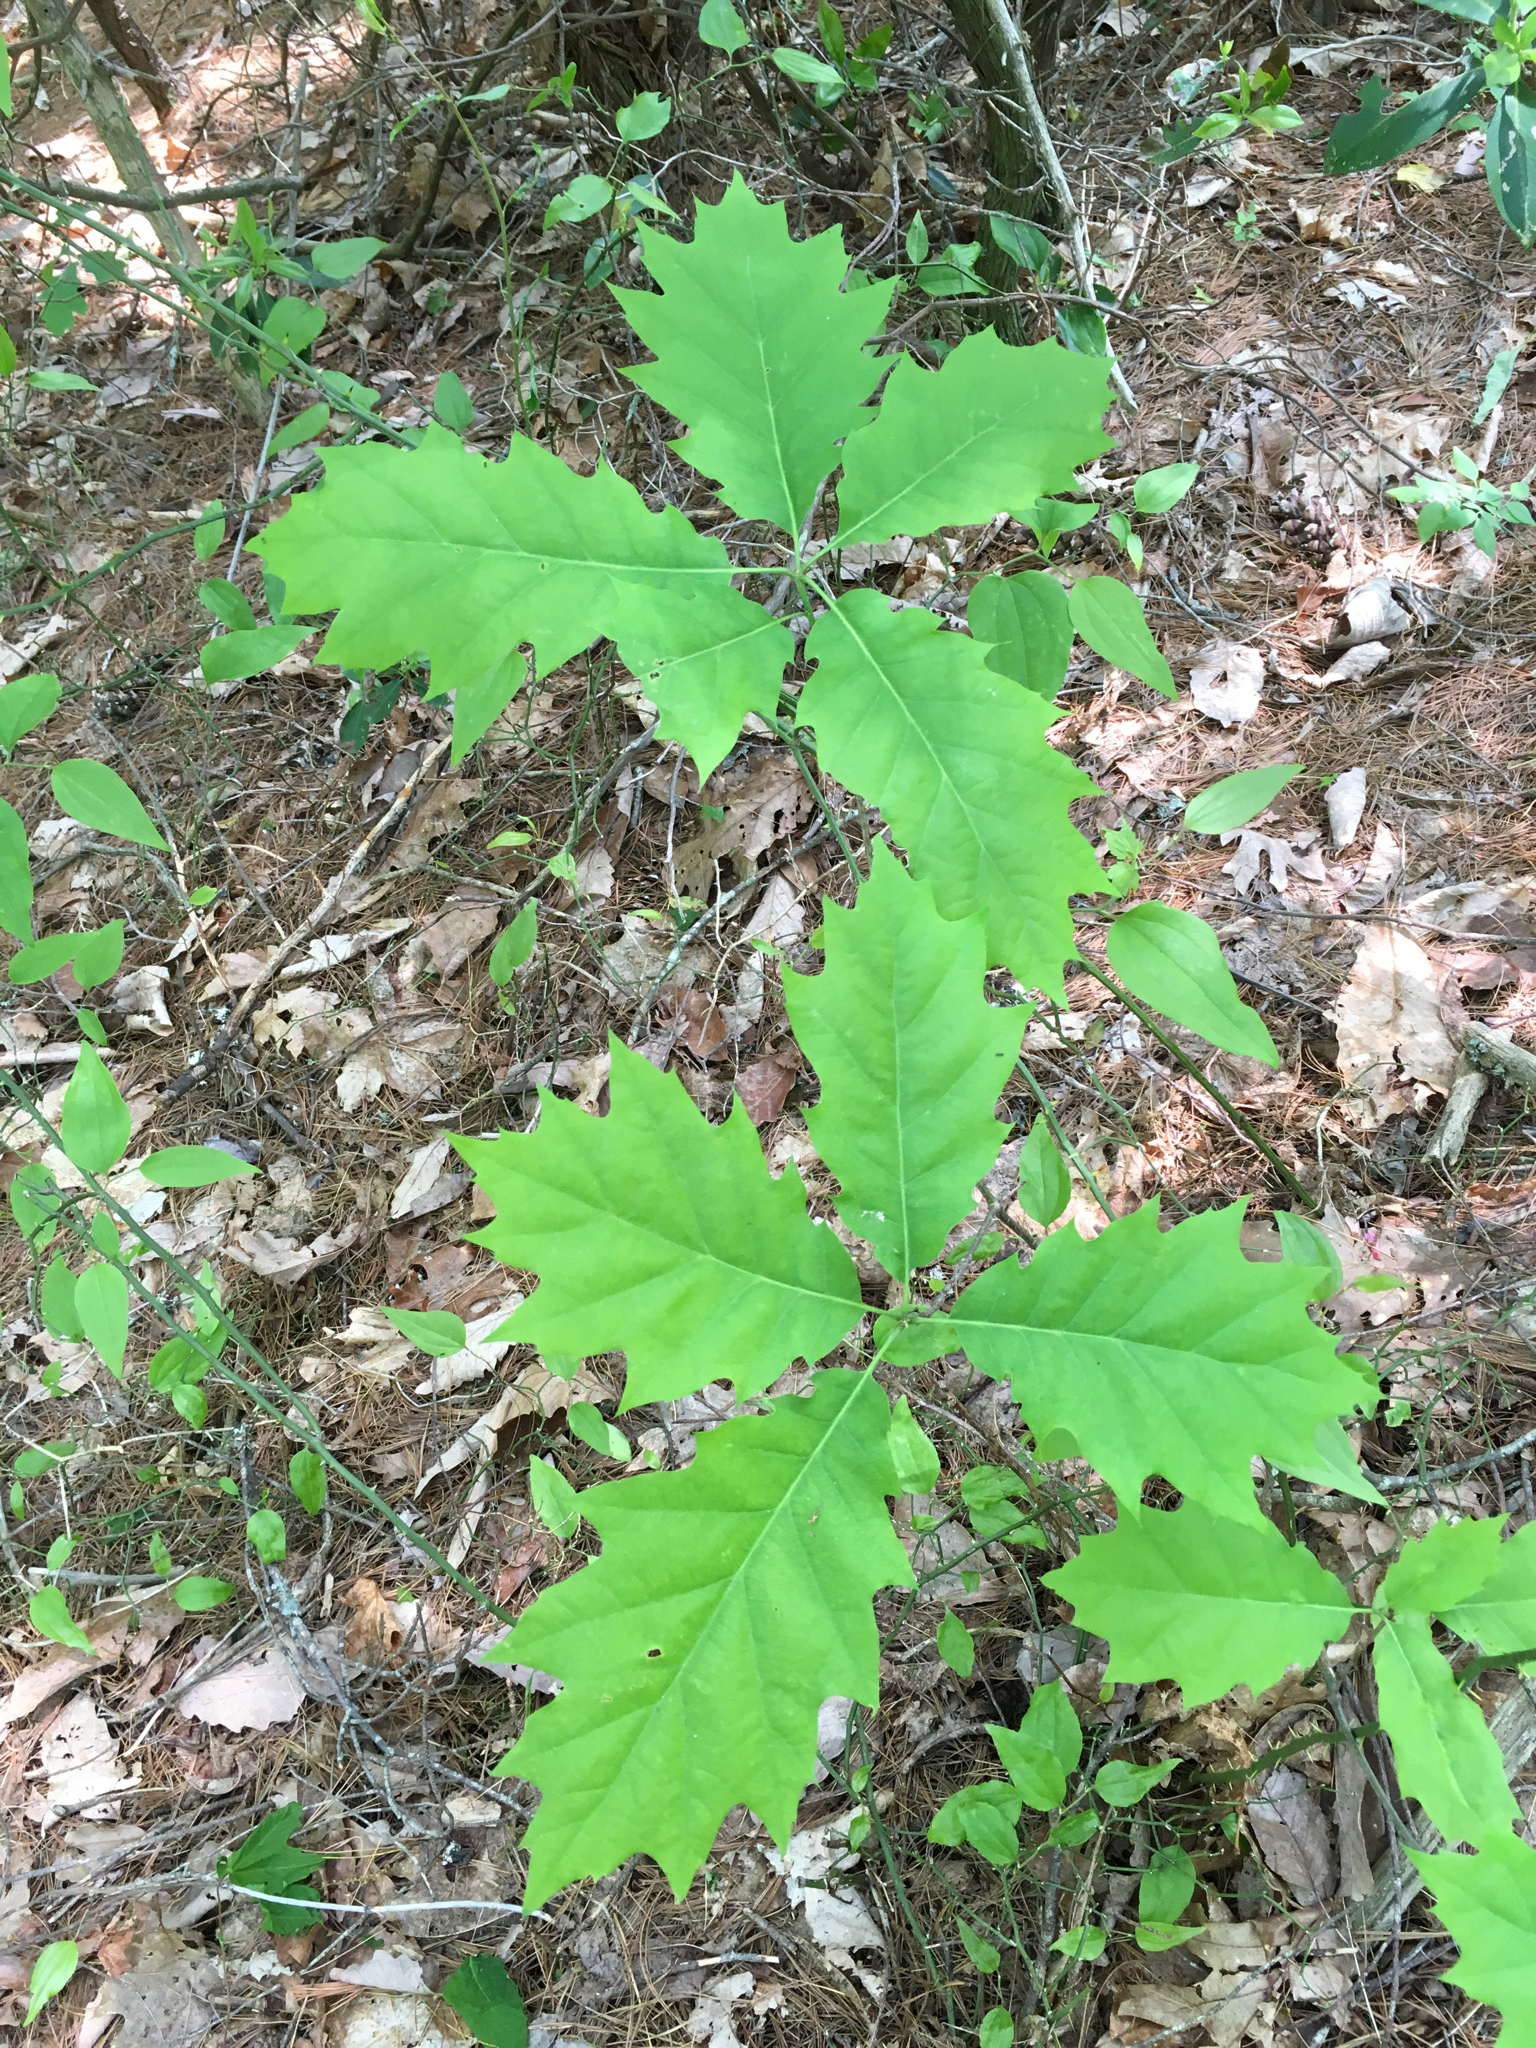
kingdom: Plantae
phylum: Tracheophyta
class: Magnoliopsida
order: Fagales
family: Fagaceae
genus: Quercus
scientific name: Quercus rubra
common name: Red oak
